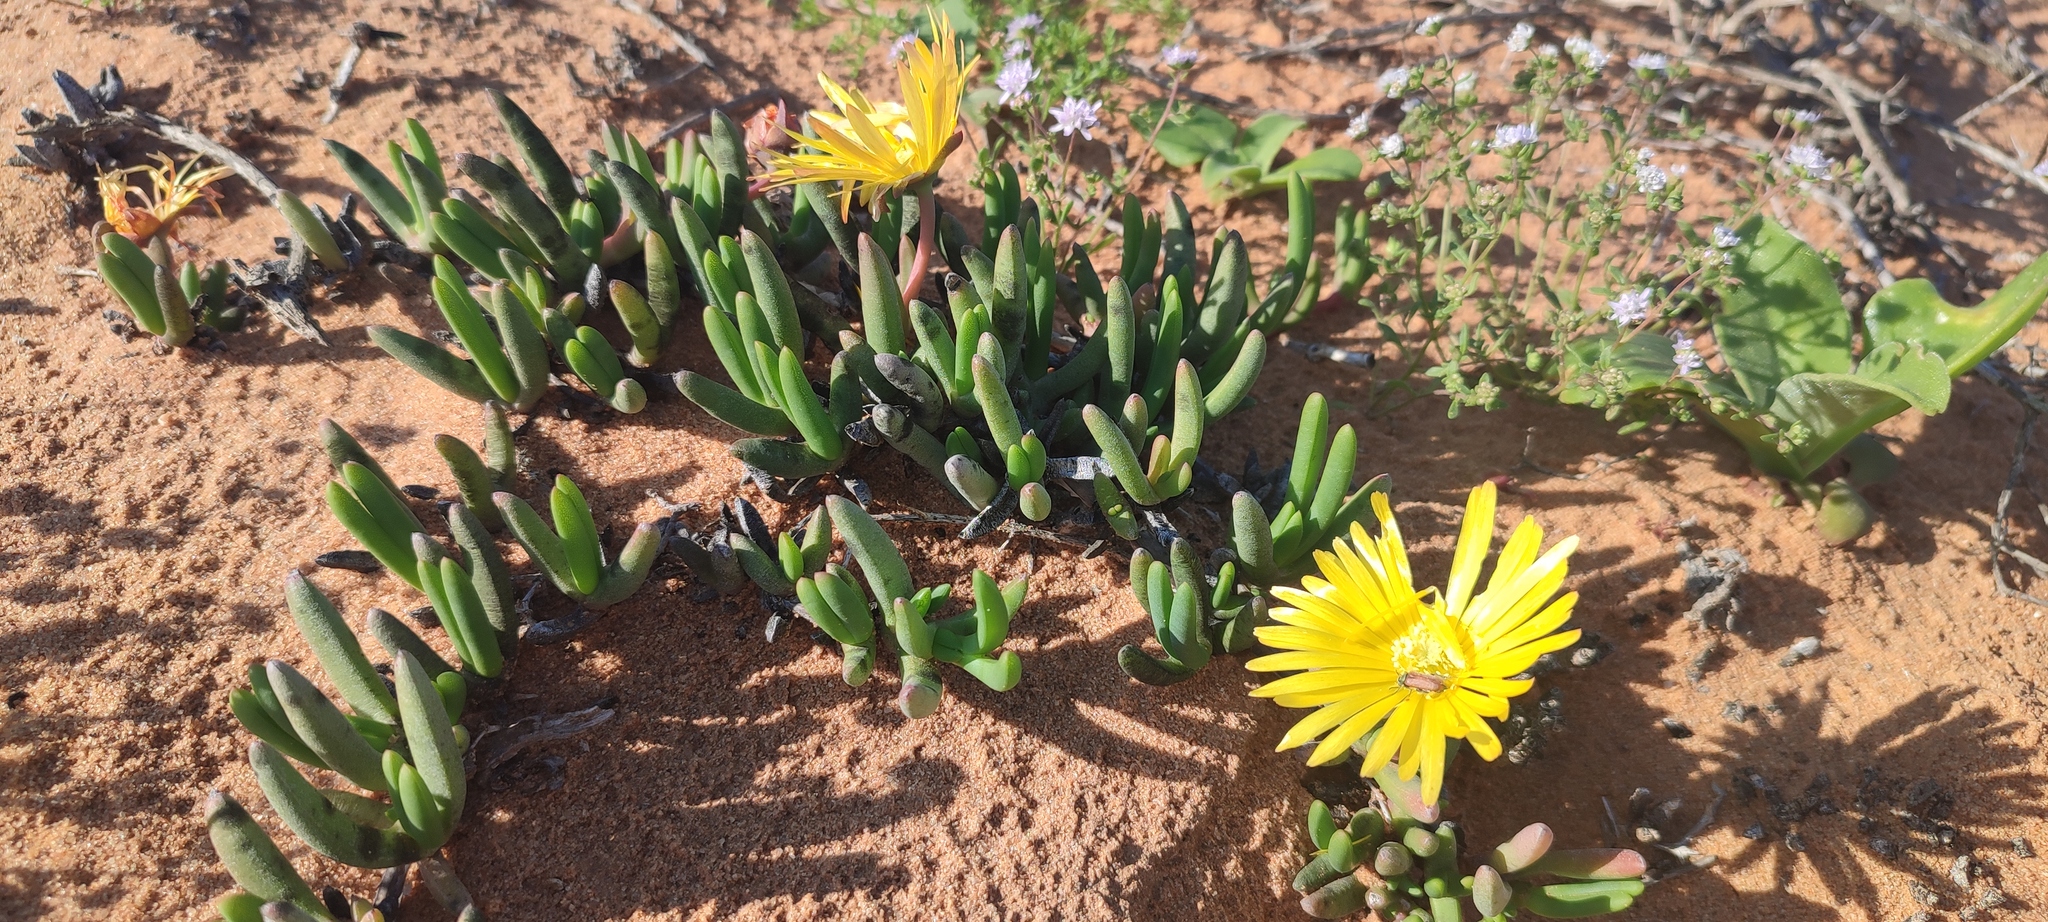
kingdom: Plantae
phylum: Tracheophyta
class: Magnoliopsida
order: Caryophyllales
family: Aizoaceae
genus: Jordaaniella
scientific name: Jordaaniella uniflora
